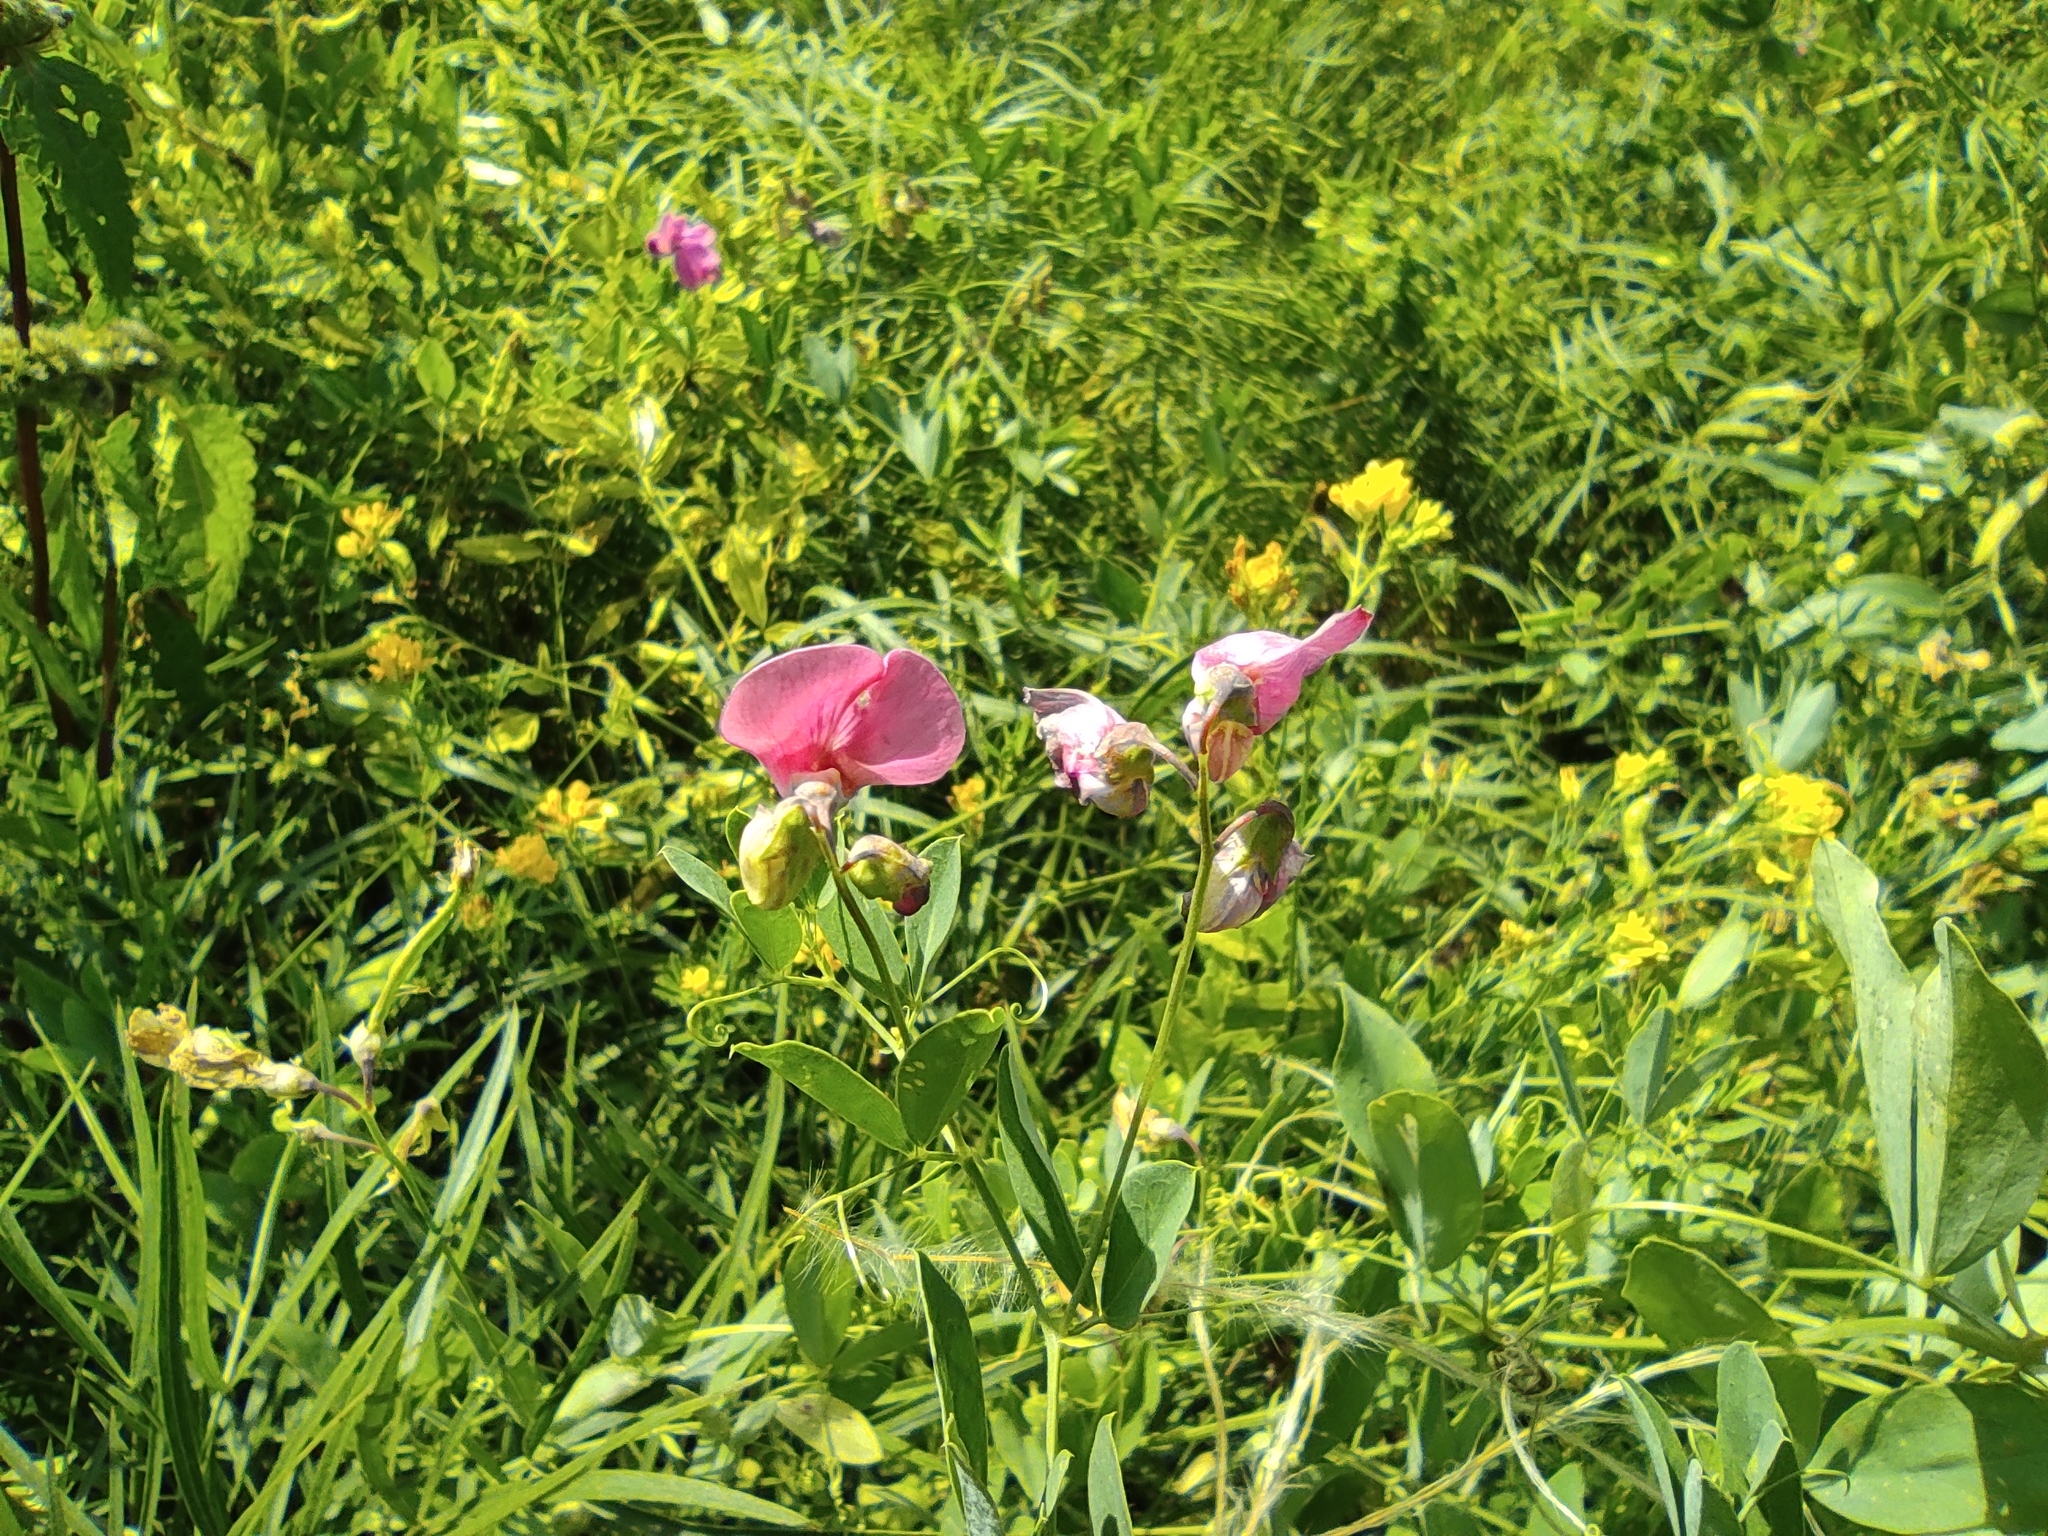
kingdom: Plantae
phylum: Tracheophyta
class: Magnoliopsida
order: Fabales
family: Fabaceae
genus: Lathyrus
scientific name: Lathyrus tuberosus
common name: Tuberous pea
